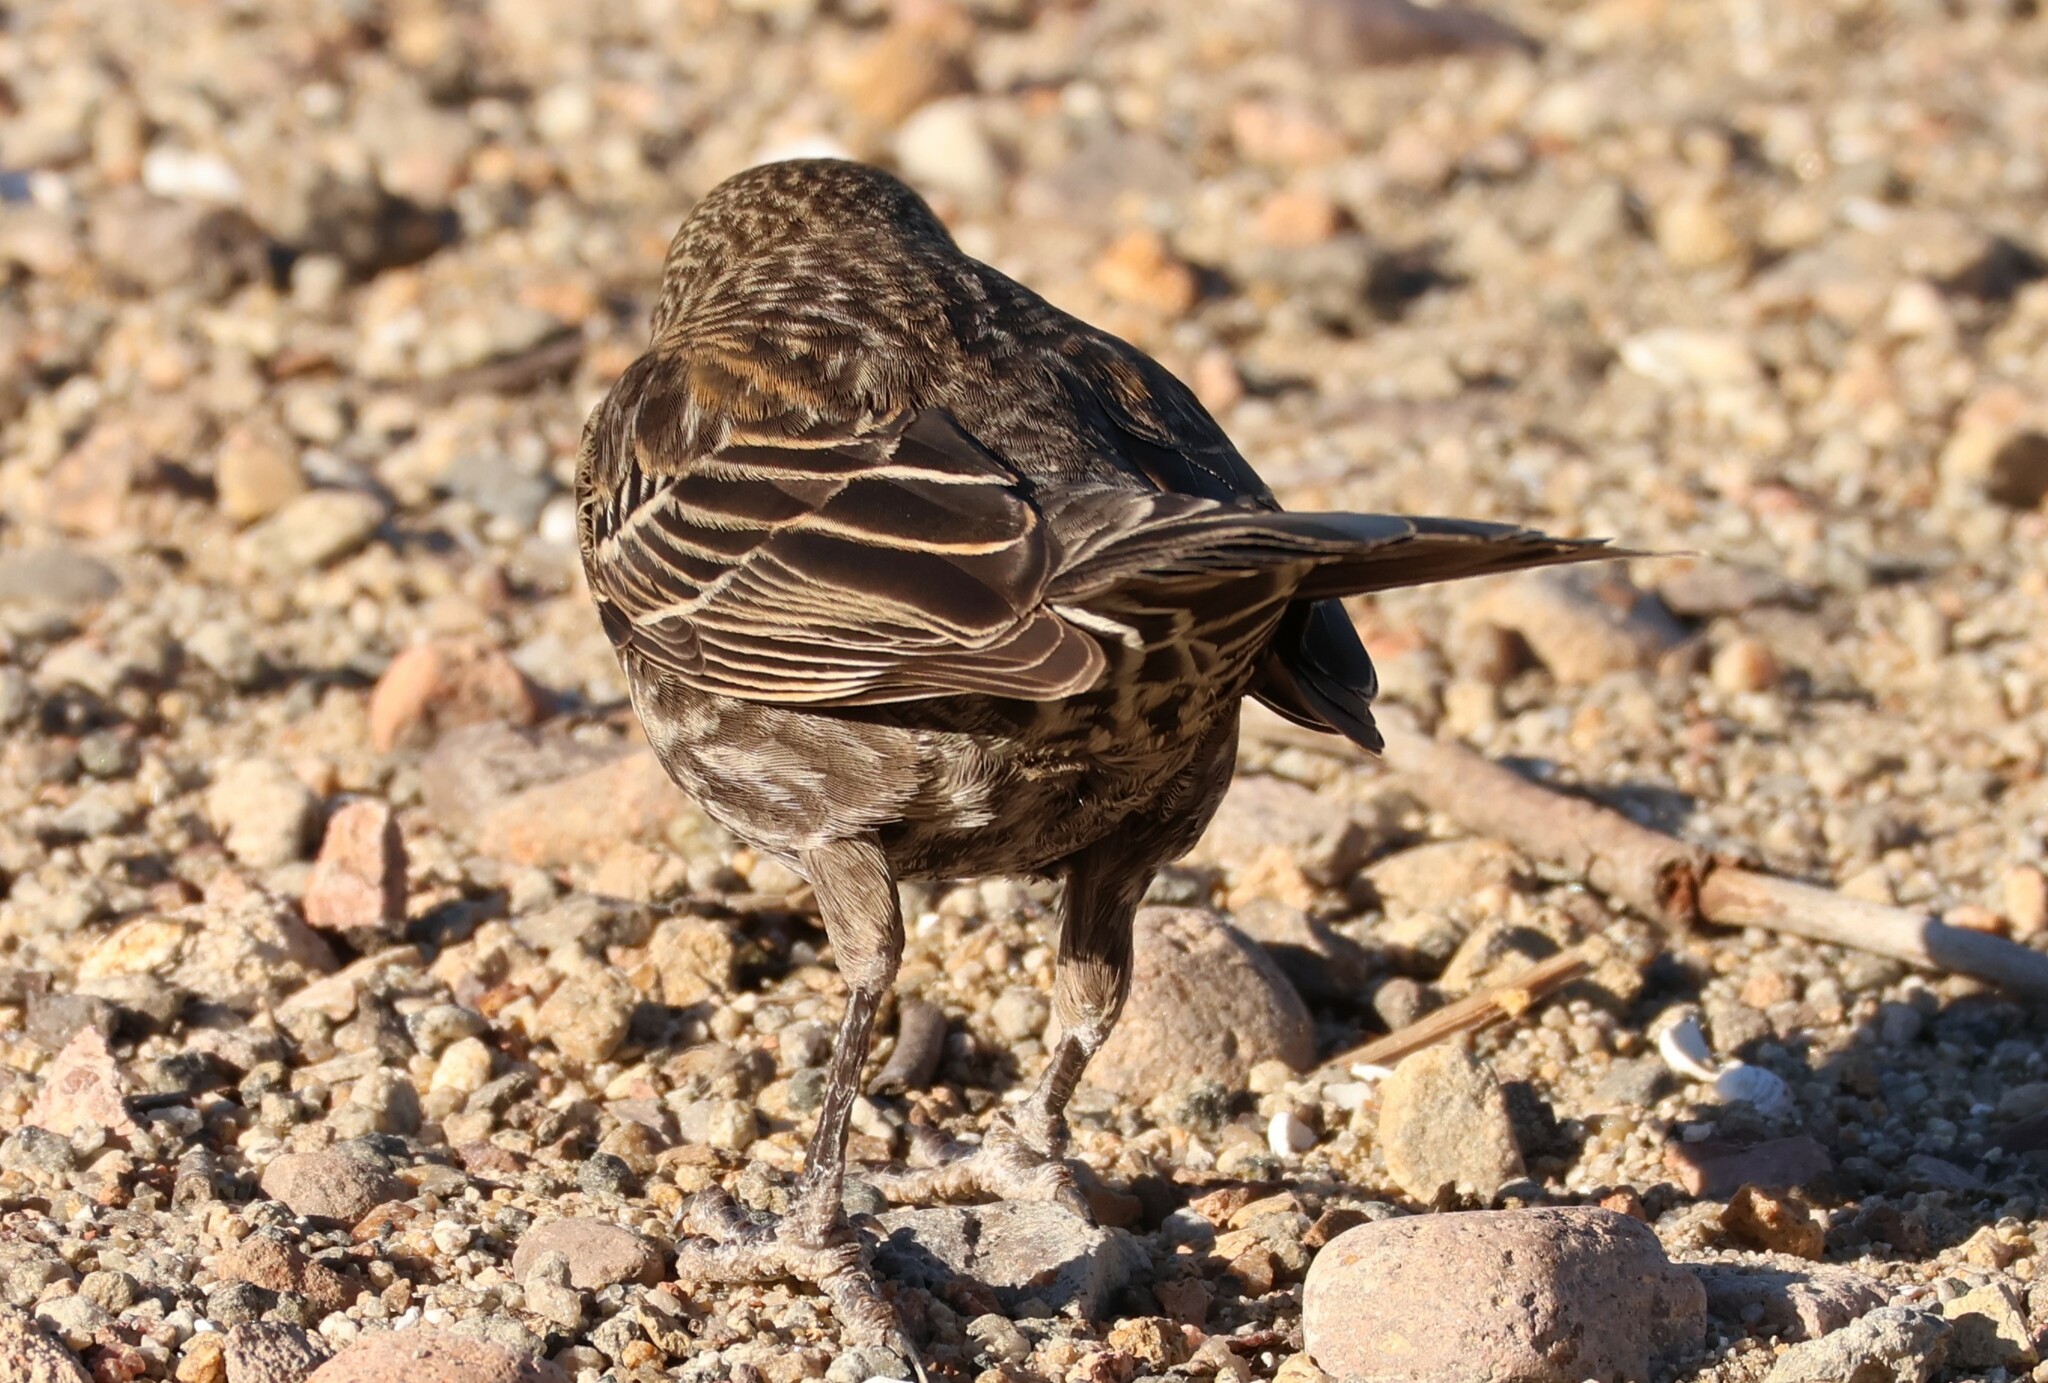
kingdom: Animalia
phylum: Chordata
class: Aves
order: Passeriformes
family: Icteridae
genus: Agelaius
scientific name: Agelaius phoeniceus
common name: Red-winged blackbird
